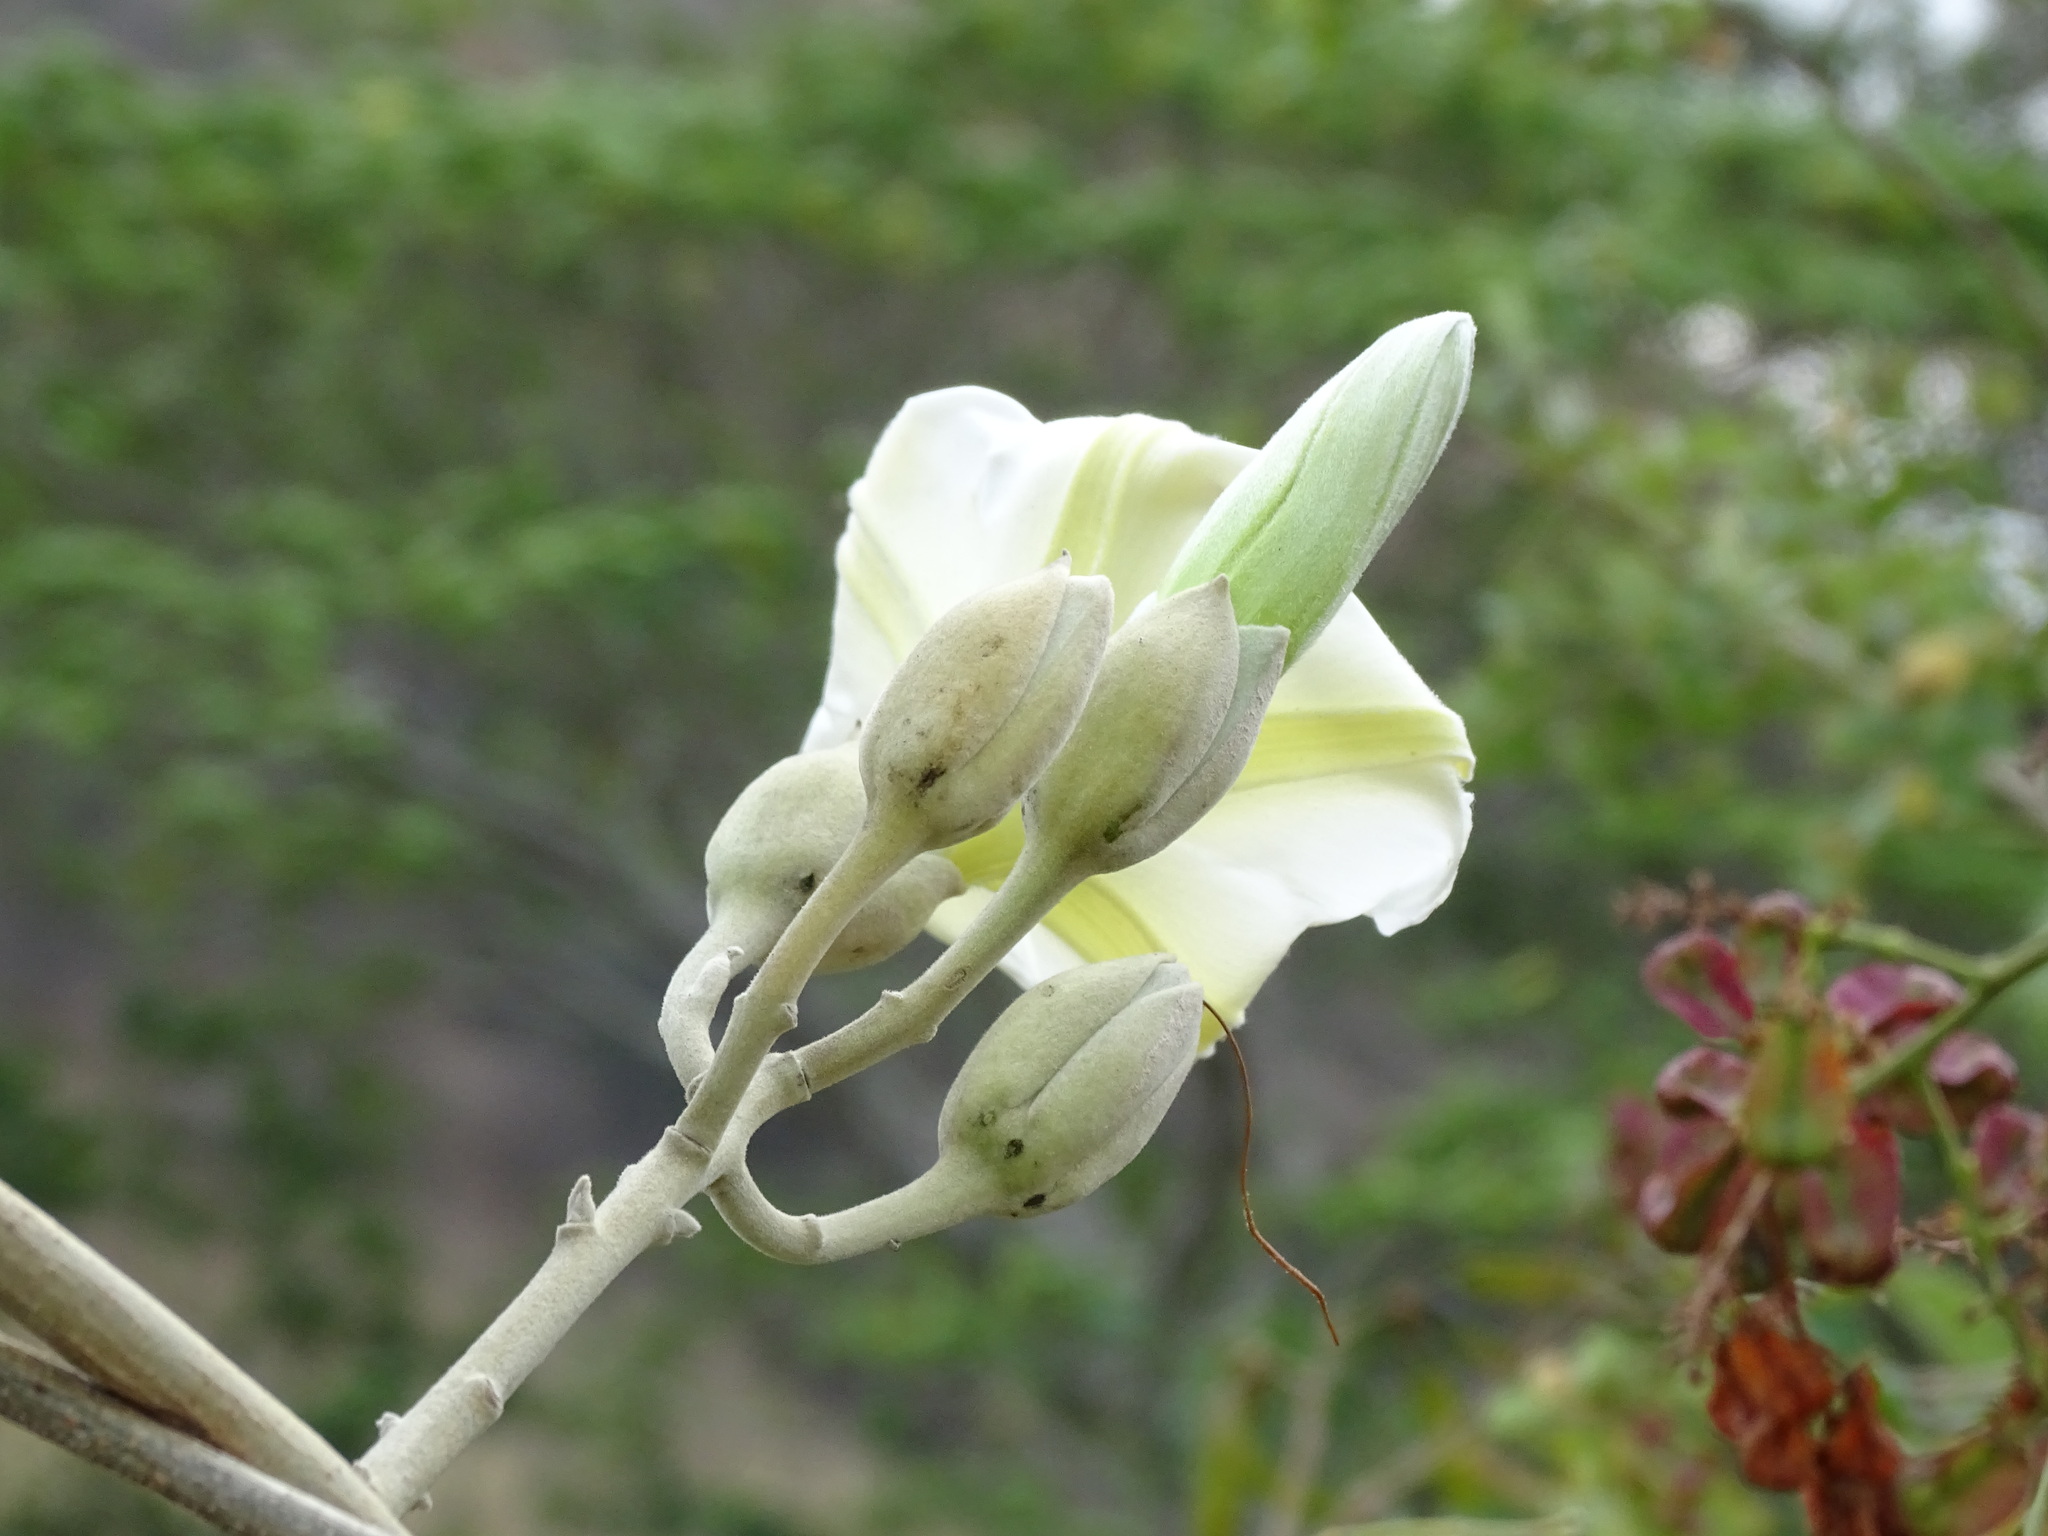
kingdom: Plantae
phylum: Tracheophyta
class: Magnoliopsida
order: Solanales
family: Convolvulaceae
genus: Ipomoea
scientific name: Ipomoea praecana
